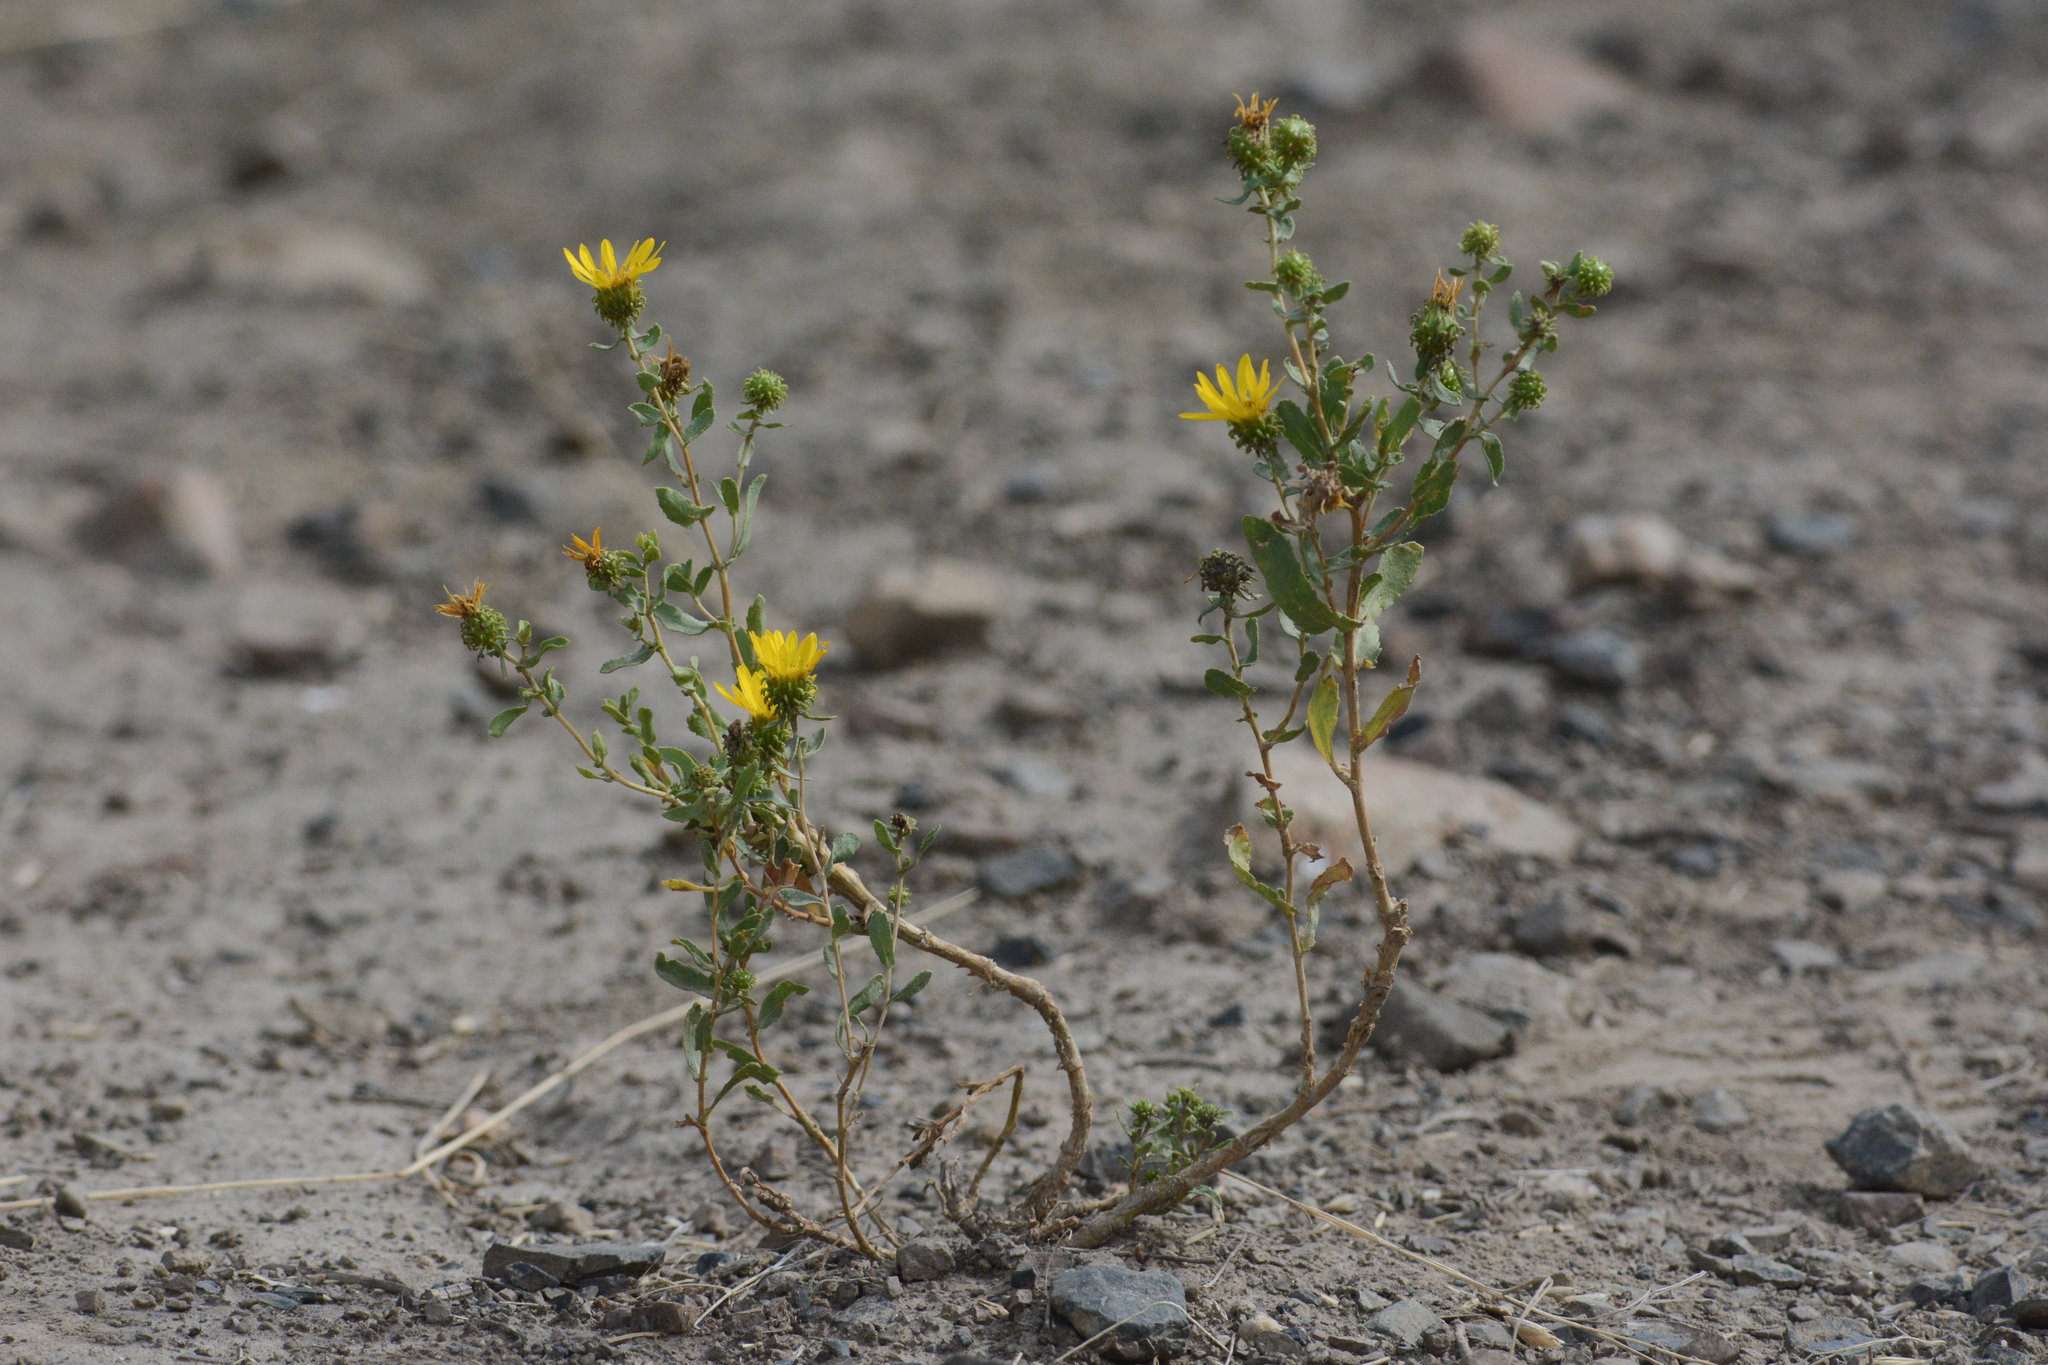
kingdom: Plantae
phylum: Tracheophyta
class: Magnoliopsida
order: Asterales
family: Asteraceae
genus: Grindelia
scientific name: Grindelia squarrosa
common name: Curly-cup gumweed
